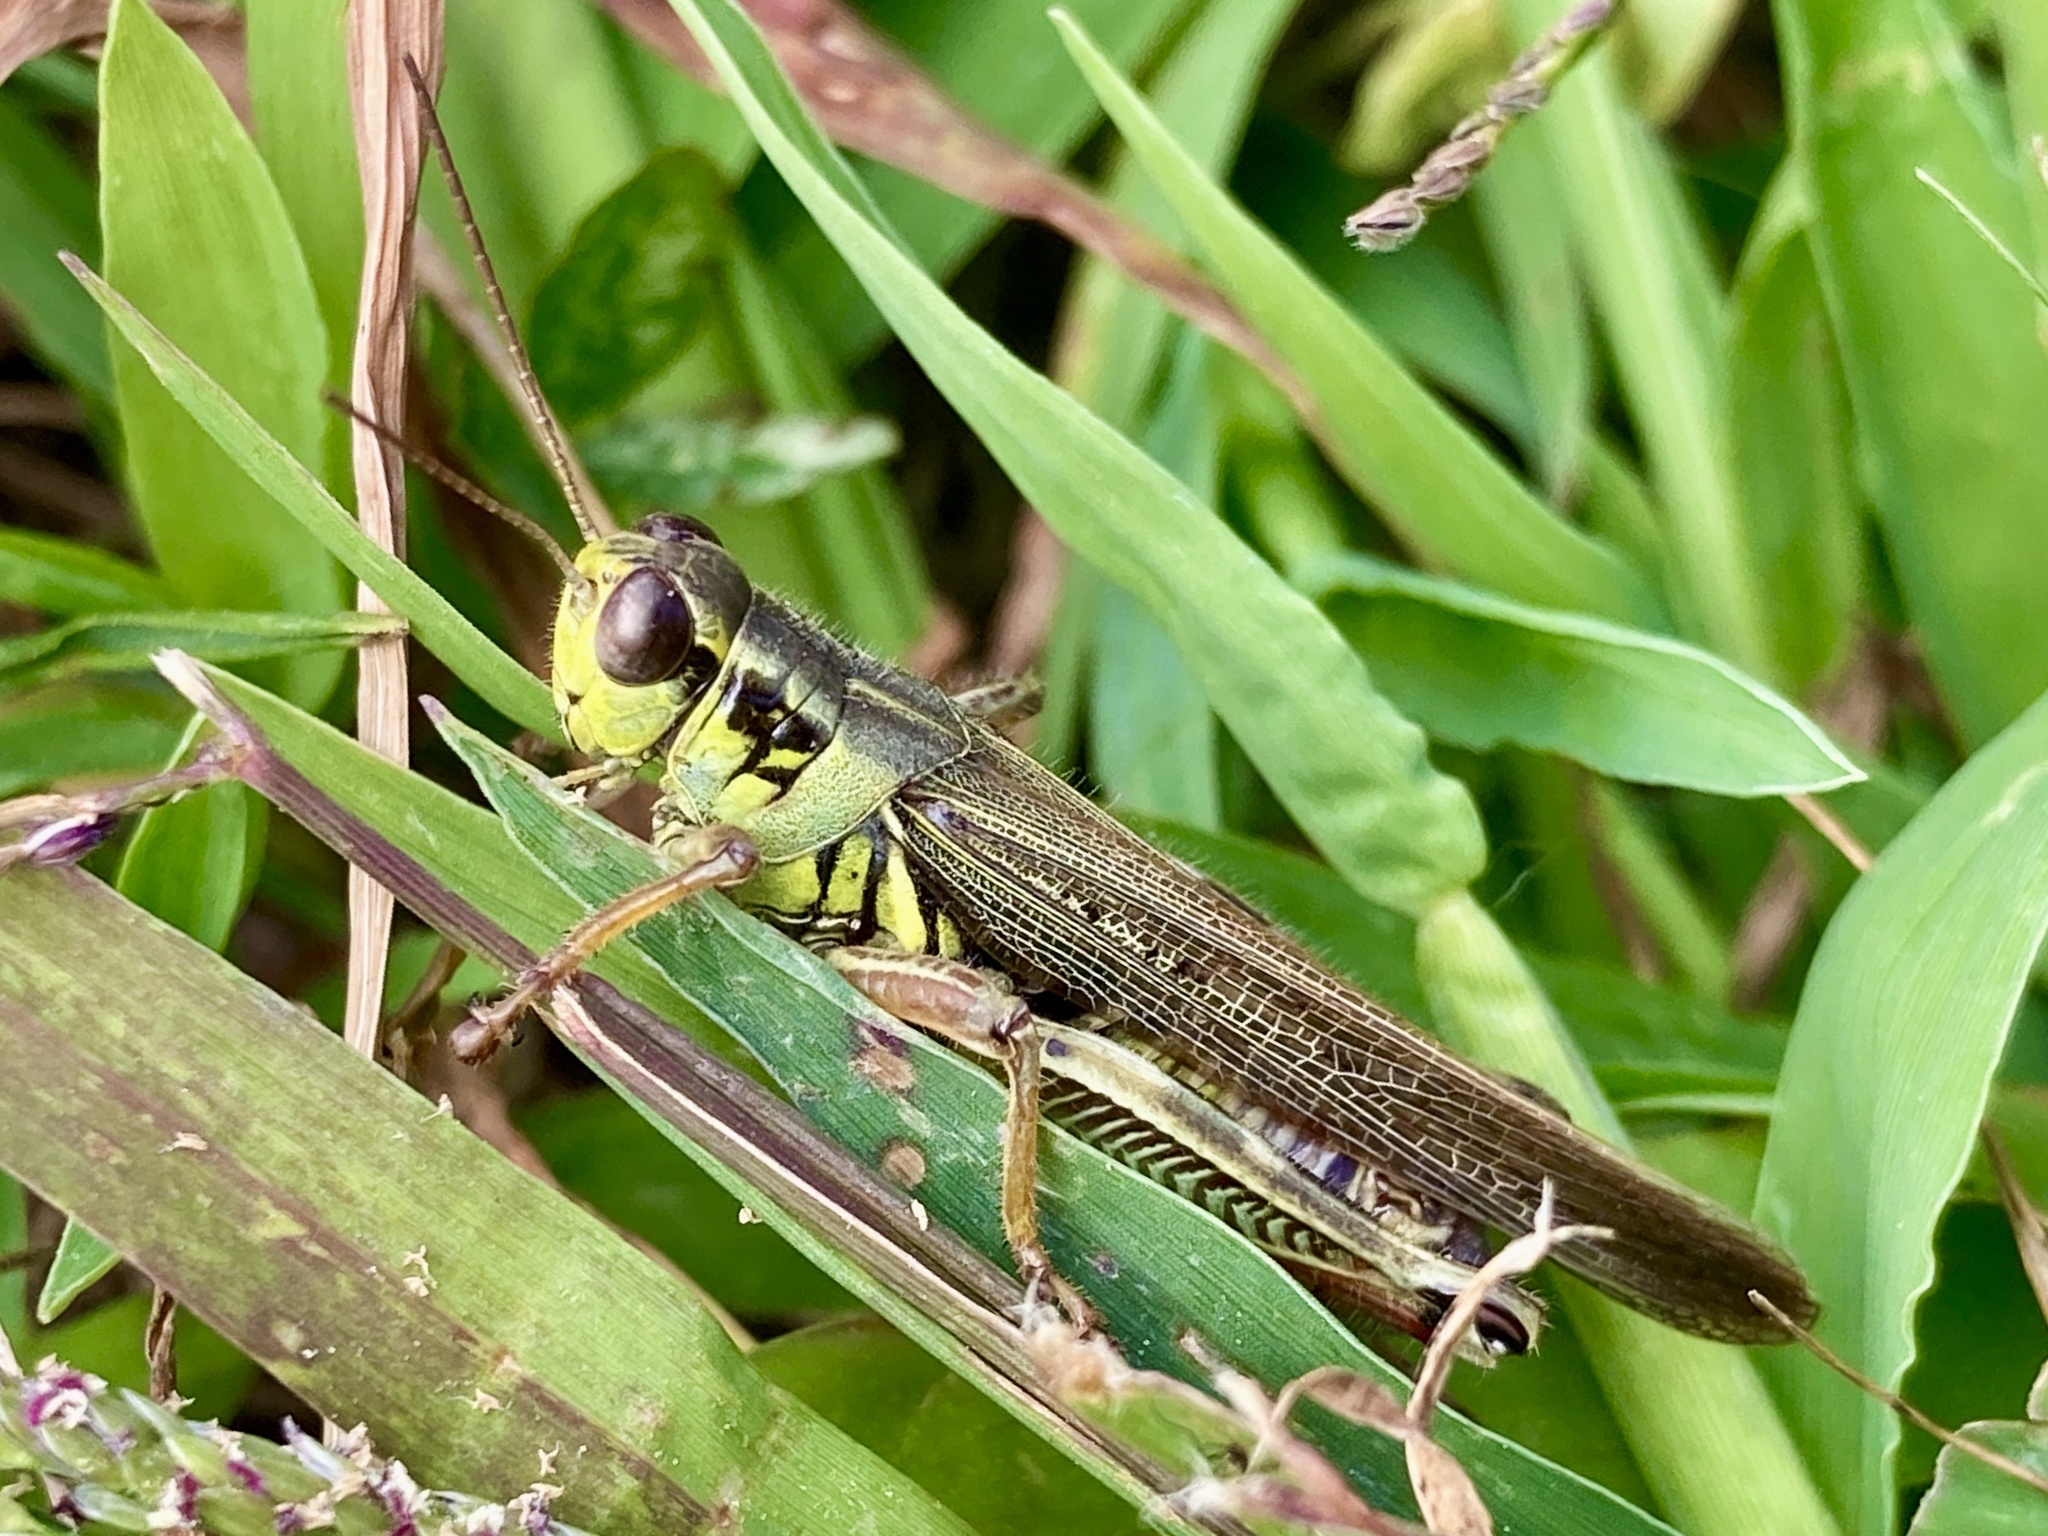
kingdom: Animalia
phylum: Arthropoda
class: Insecta
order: Orthoptera
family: Acrididae
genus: Melanoplus
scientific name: Melanoplus femurrubrum
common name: Red-legged grasshopper
